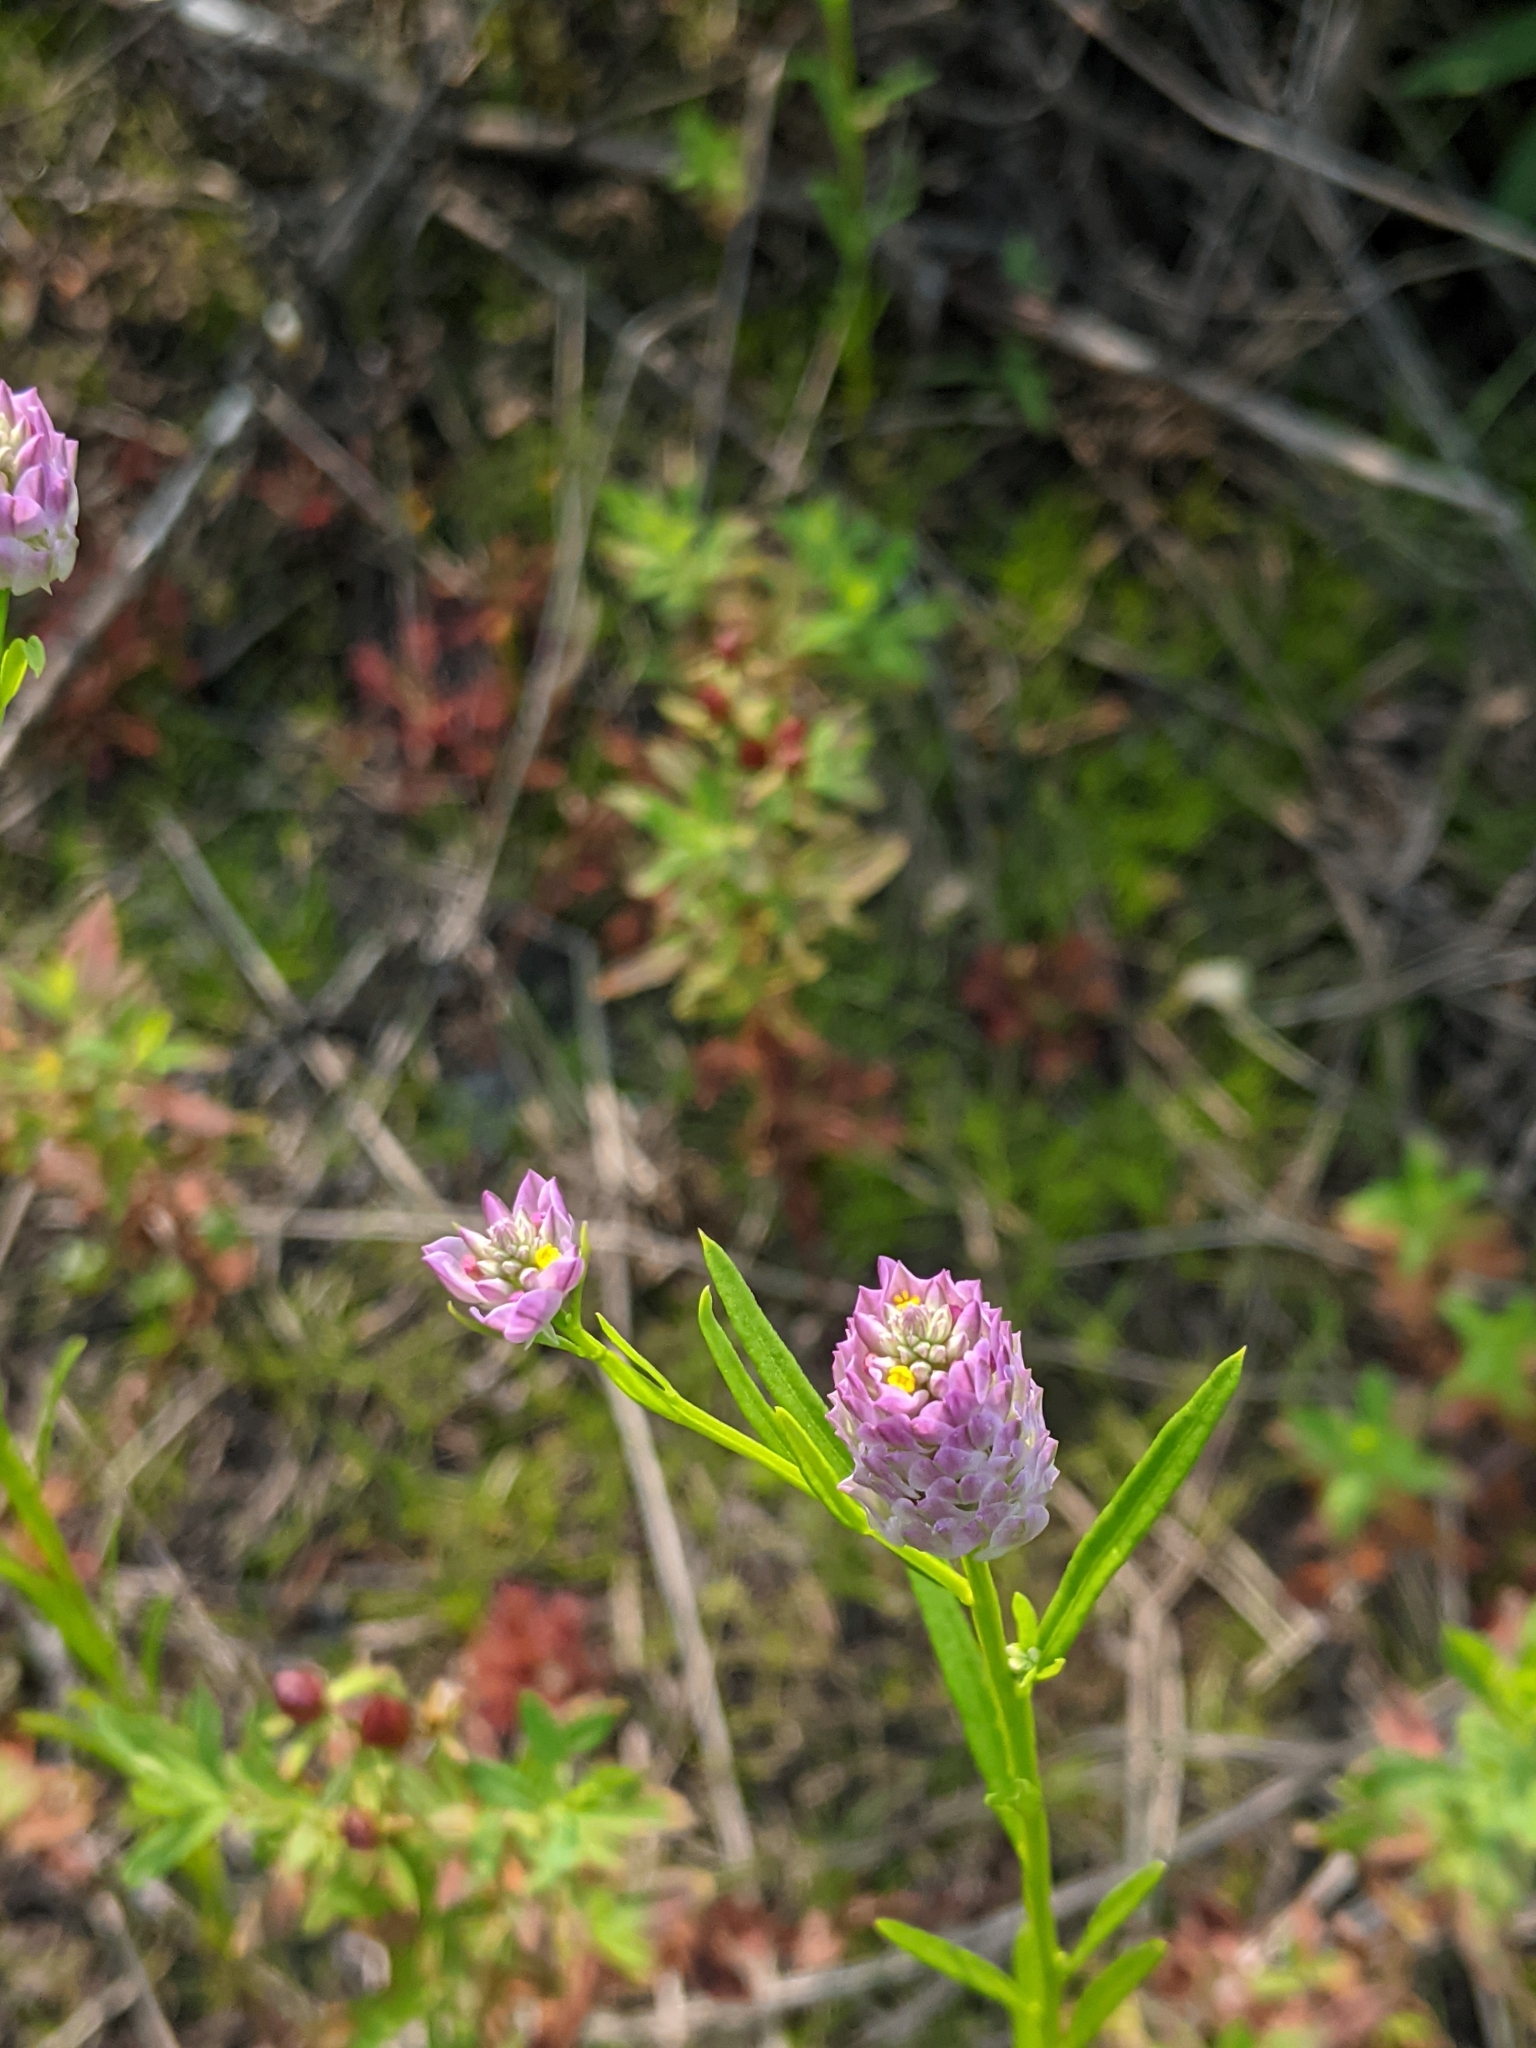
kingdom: Plantae
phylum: Tracheophyta
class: Magnoliopsida
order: Fabales
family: Polygalaceae
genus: Polygala
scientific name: Polygala sanguinea
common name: Blood milkwort
